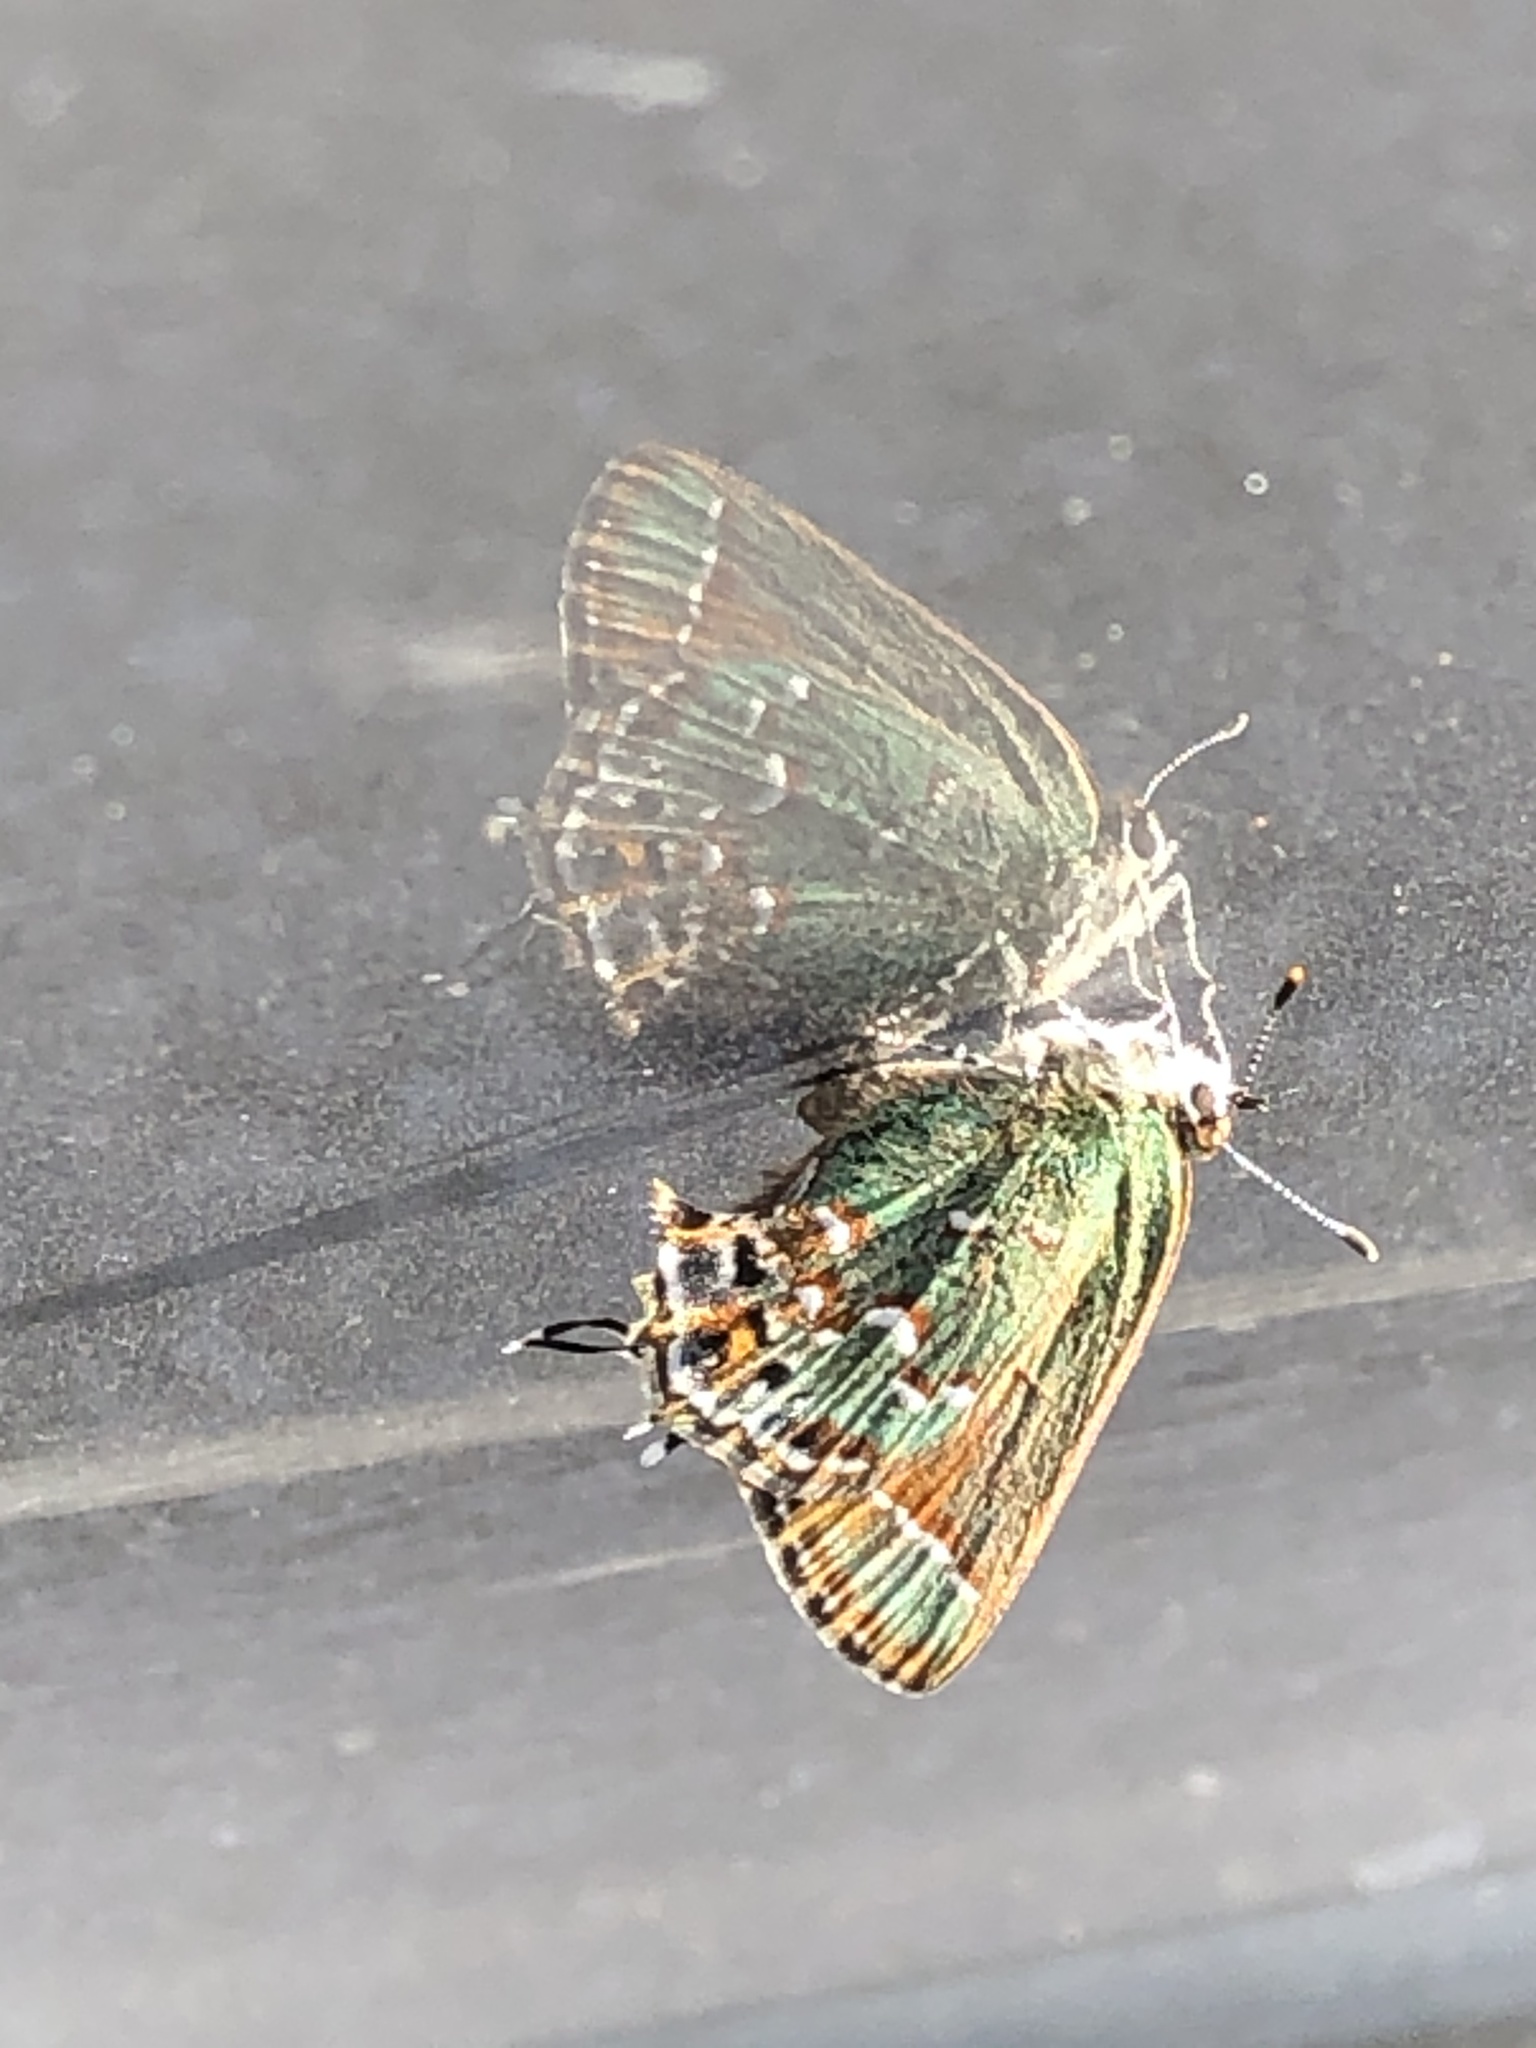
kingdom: Animalia
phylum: Arthropoda
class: Insecta
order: Lepidoptera
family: Lycaenidae
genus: Mitoura
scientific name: Mitoura gryneus
